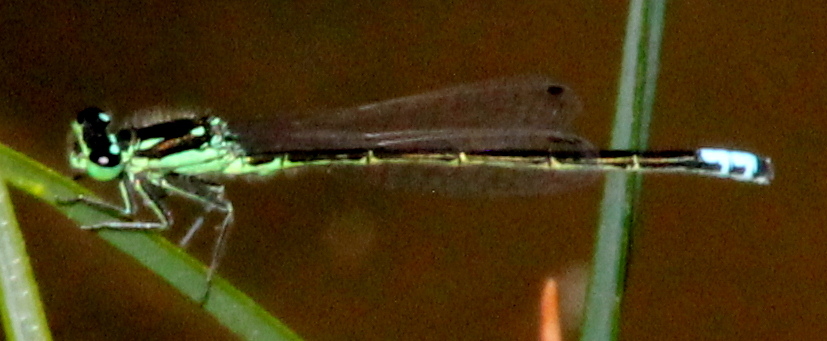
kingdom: Animalia
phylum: Arthropoda
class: Insecta
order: Odonata
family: Coenagrionidae
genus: Ischnura
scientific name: Ischnura verticalis
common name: Eastern forktail
